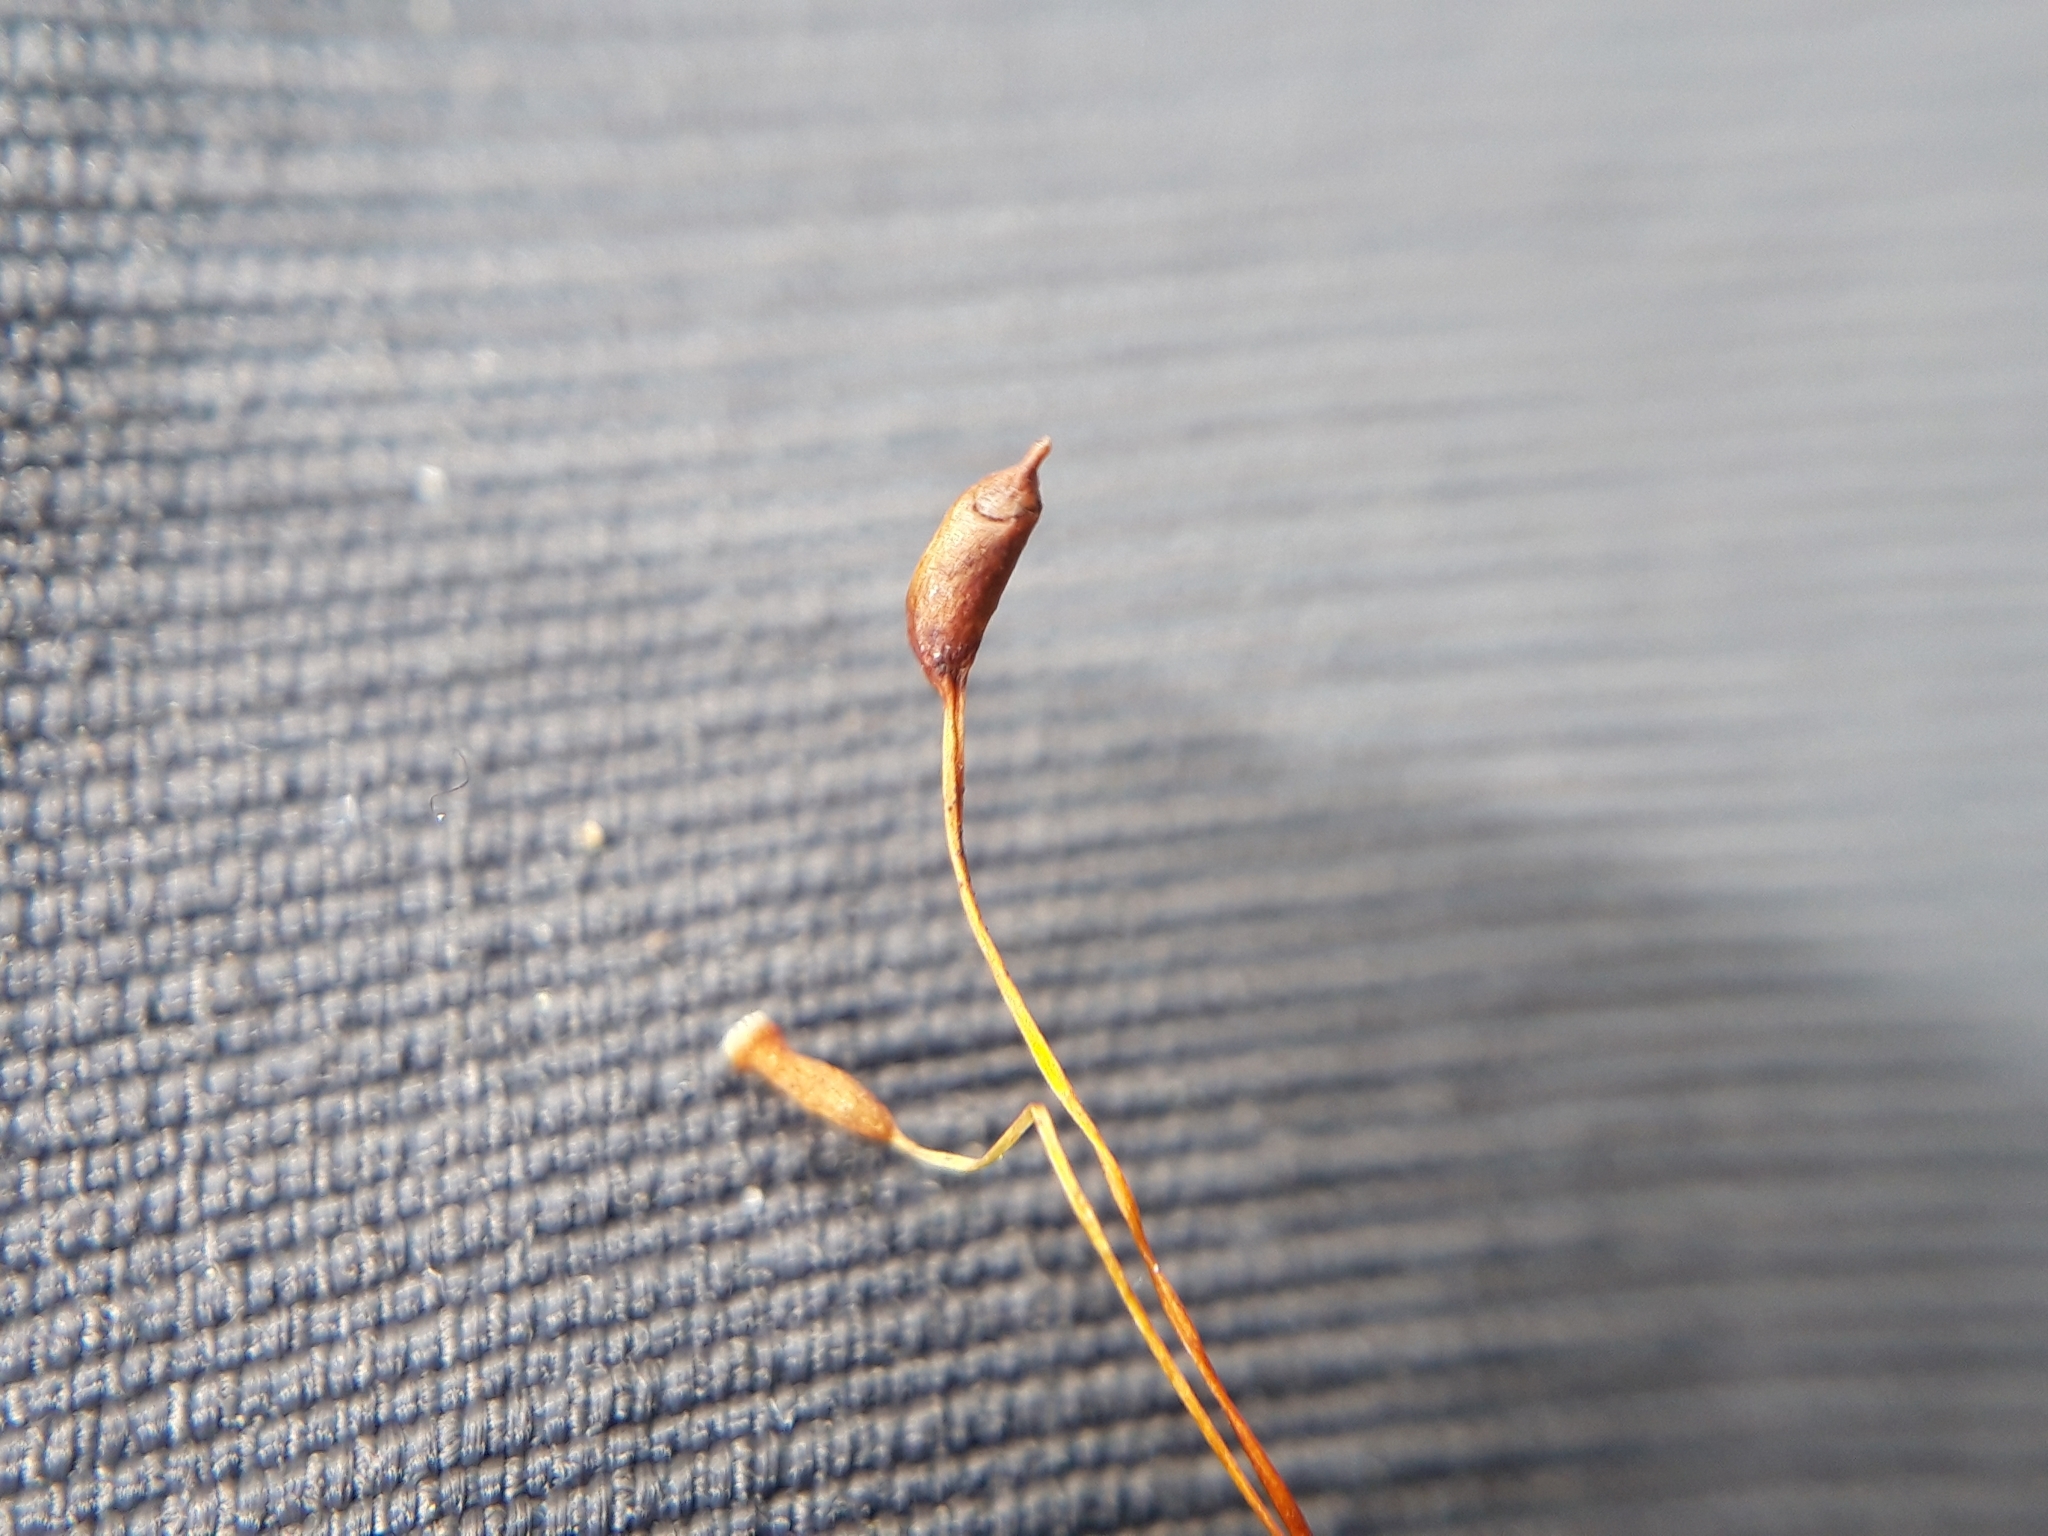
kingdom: Plantae
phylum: Bryophyta
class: Bryopsida
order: Hypnales
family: Hypnaceae
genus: Hypnum
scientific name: Hypnum cupressiforme
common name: Cypress-leaved plait-moss
